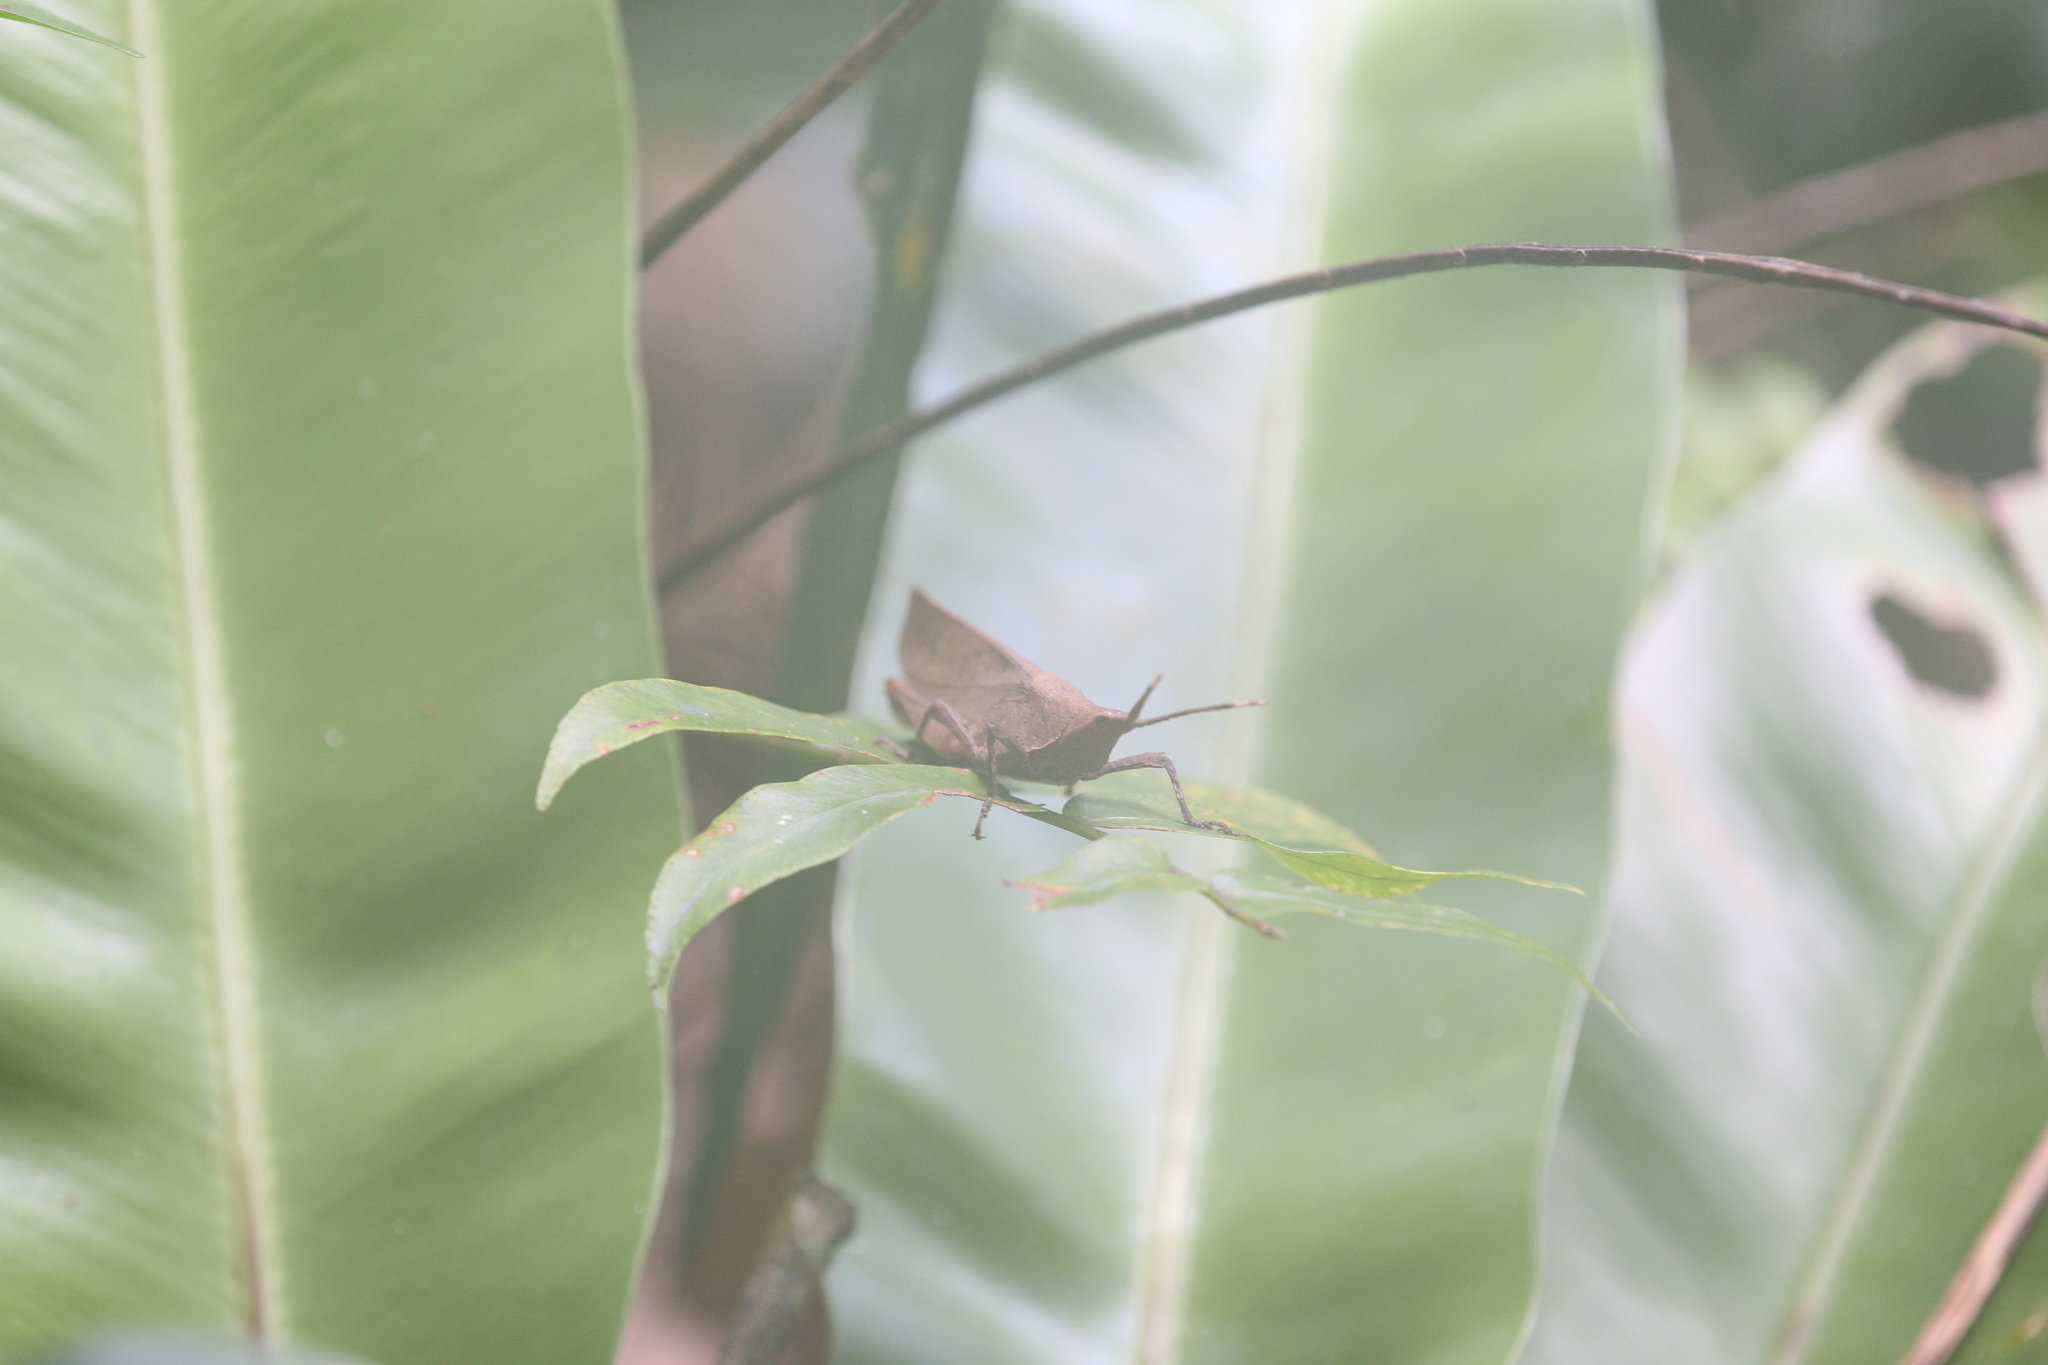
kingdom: Animalia
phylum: Arthropoda
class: Insecta
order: Orthoptera
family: Pyrgomorphidae
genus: Desmoptera
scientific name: Desmoptera truncatipennis
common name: Large forest pyrgomorph
